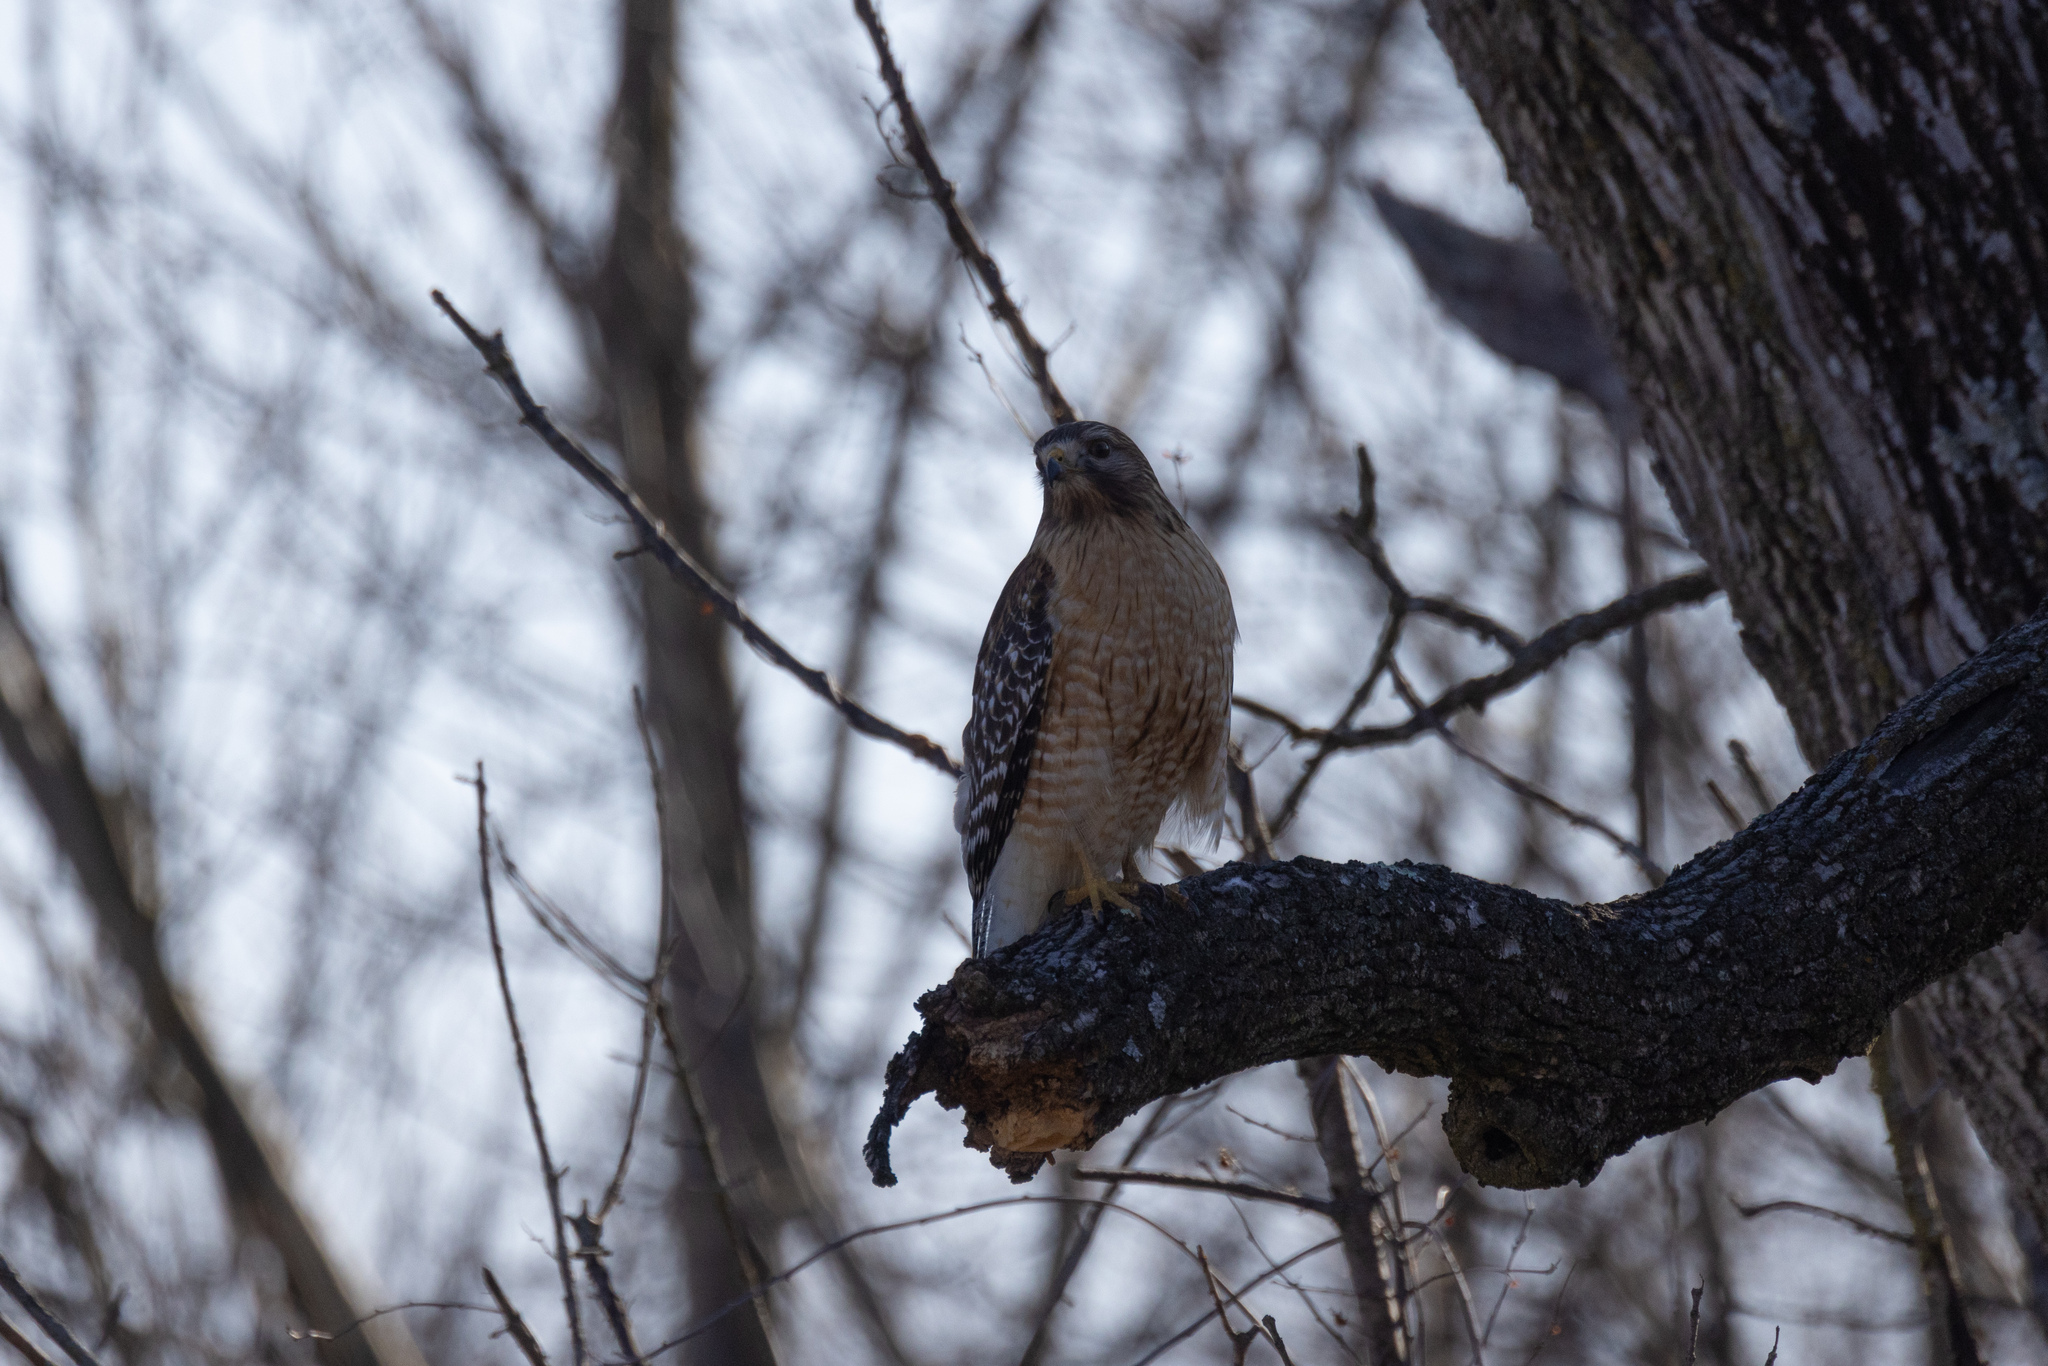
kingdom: Animalia
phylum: Chordata
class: Aves
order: Accipitriformes
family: Accipitridae
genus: Buteo
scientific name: Buteo lineatus
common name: Red-shouldered hawk
